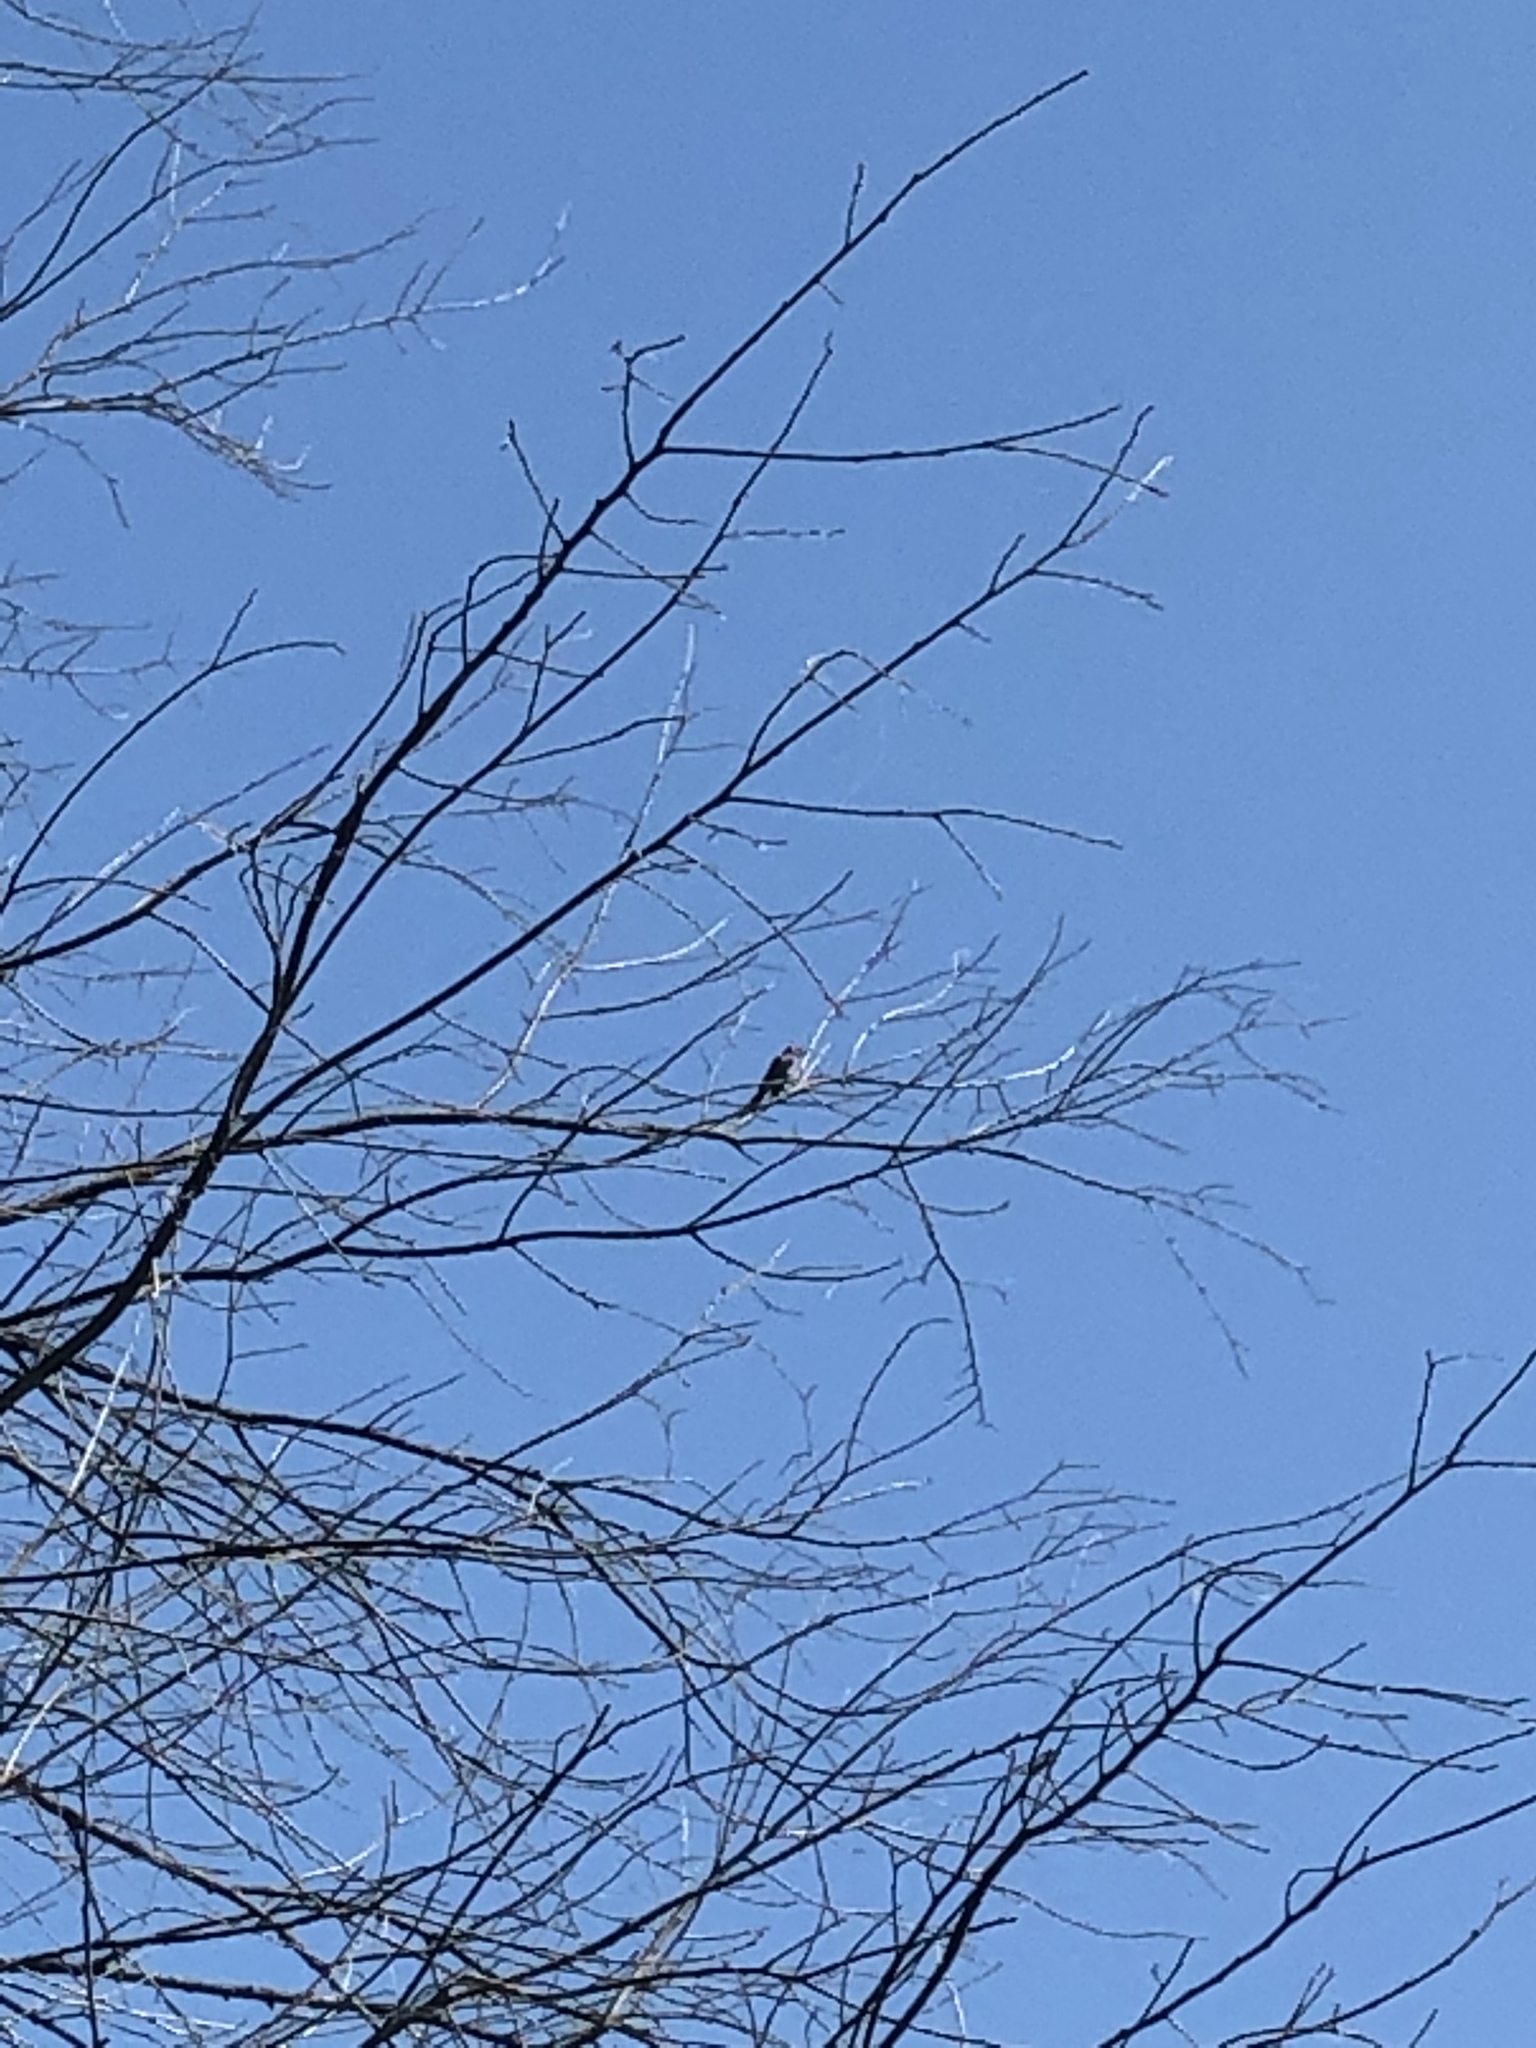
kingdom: Animalia
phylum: Chordata
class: Aves
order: Passeriformes
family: Mimidae
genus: Dumetella
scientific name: Dumetella carolinensis
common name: Gray catbird
